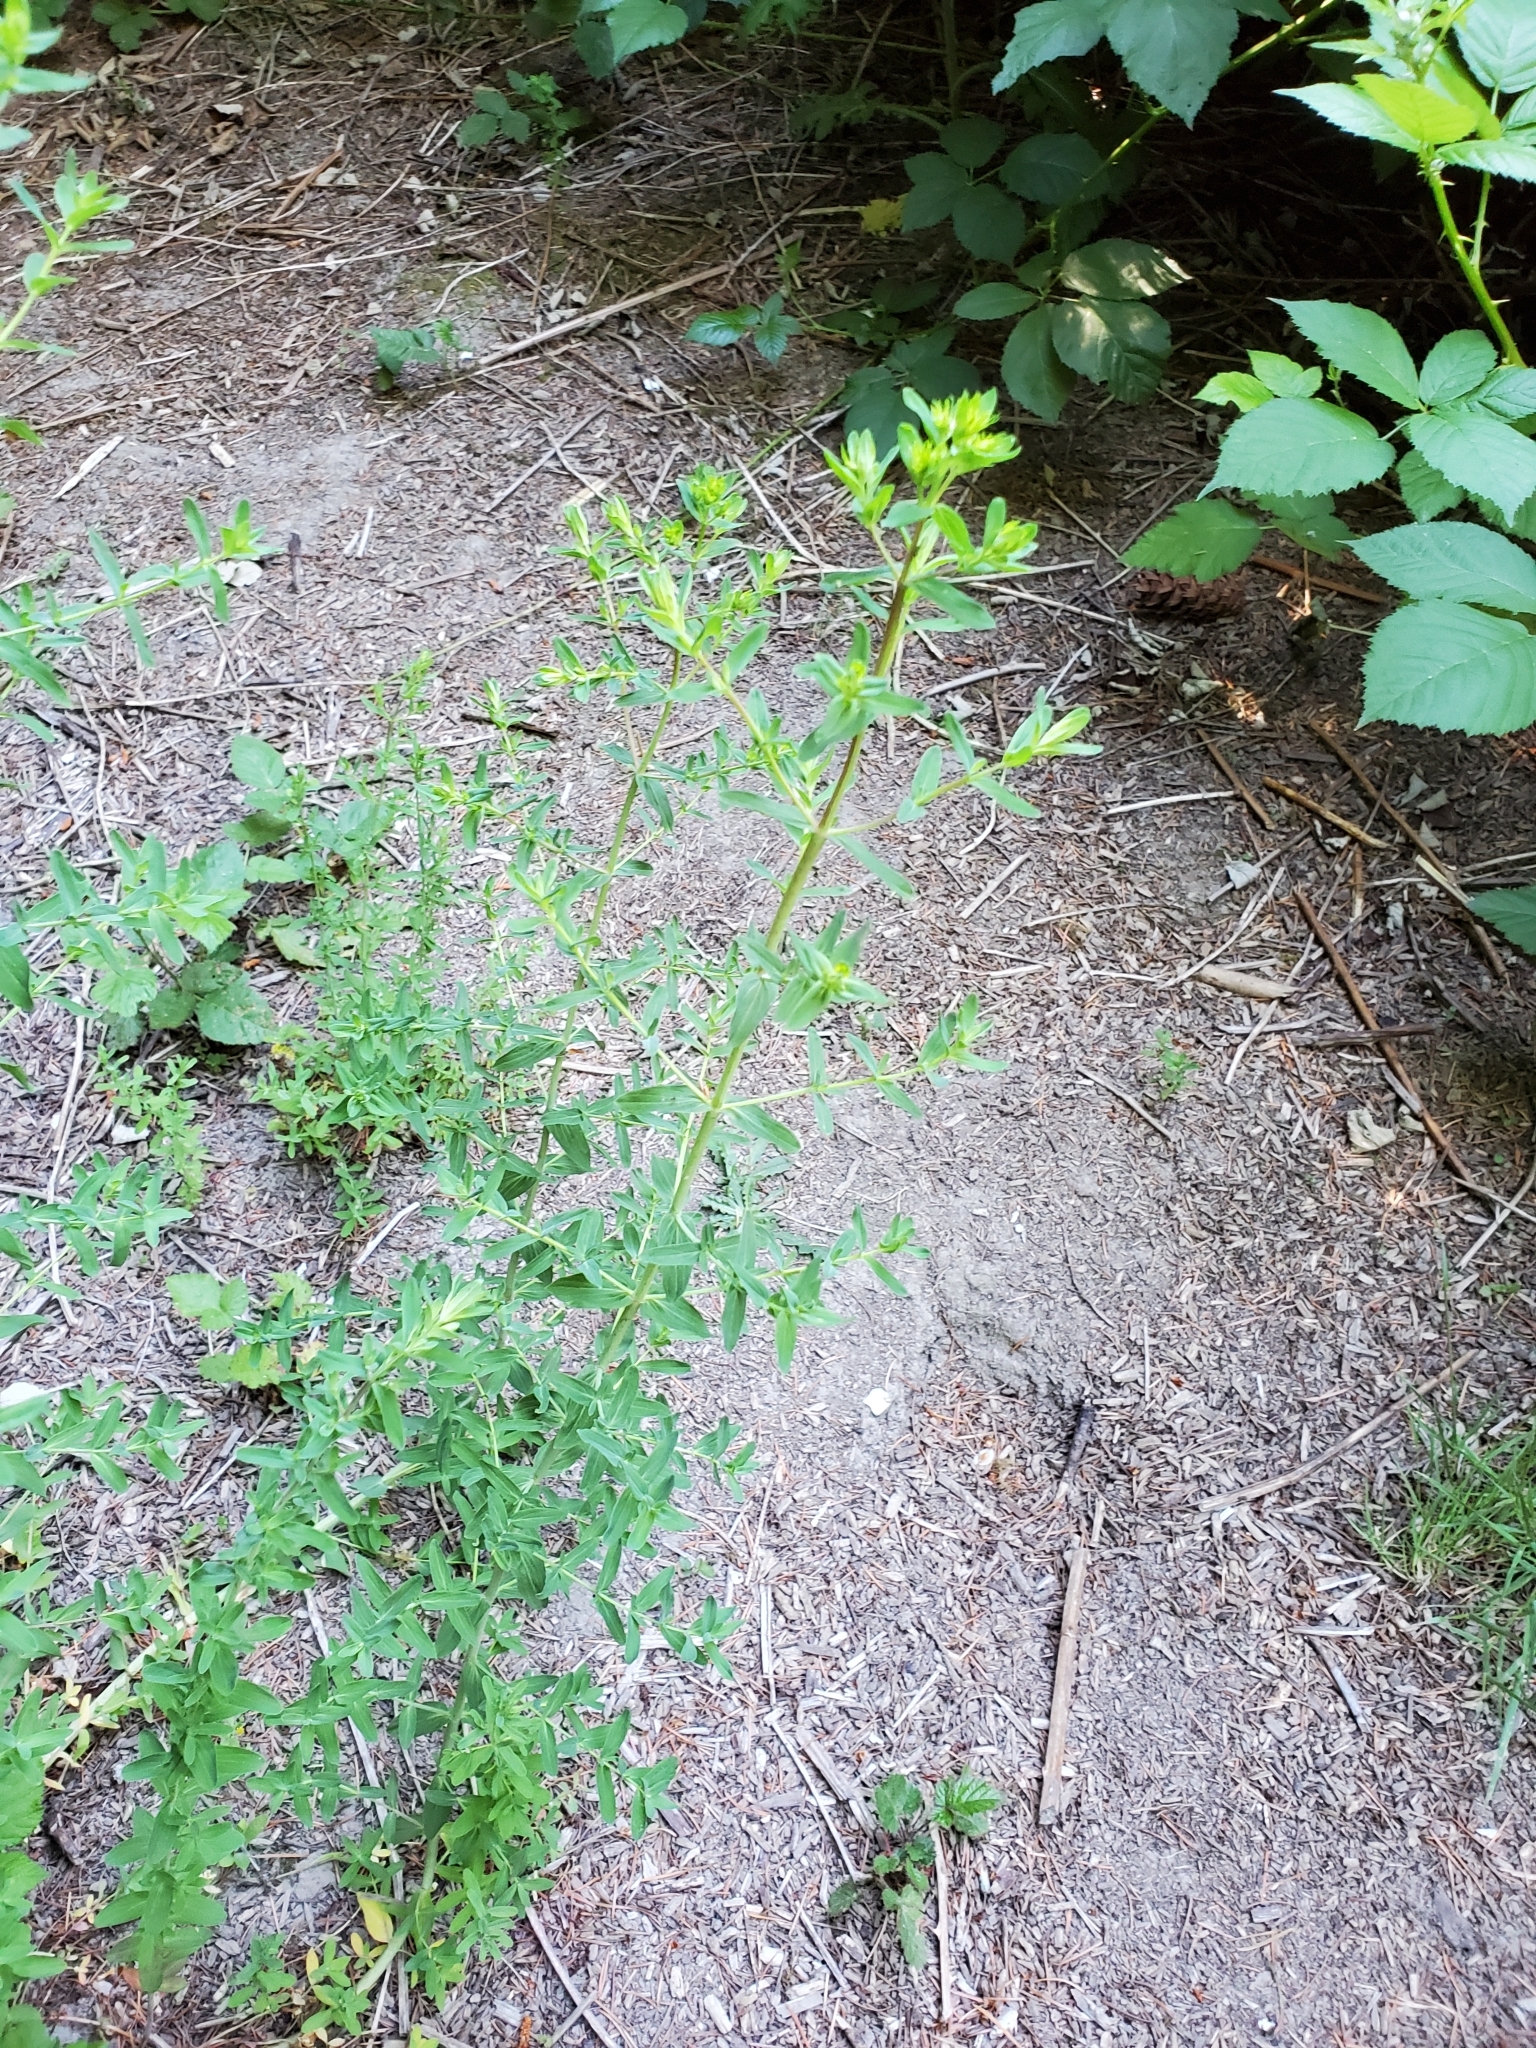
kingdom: Plantae
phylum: Tracheophyta
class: Magnoliopsida
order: Malpighiales
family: Hypericaceae
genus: Hypericum
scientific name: Hypericum perforatum
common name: Common st. johnswort
